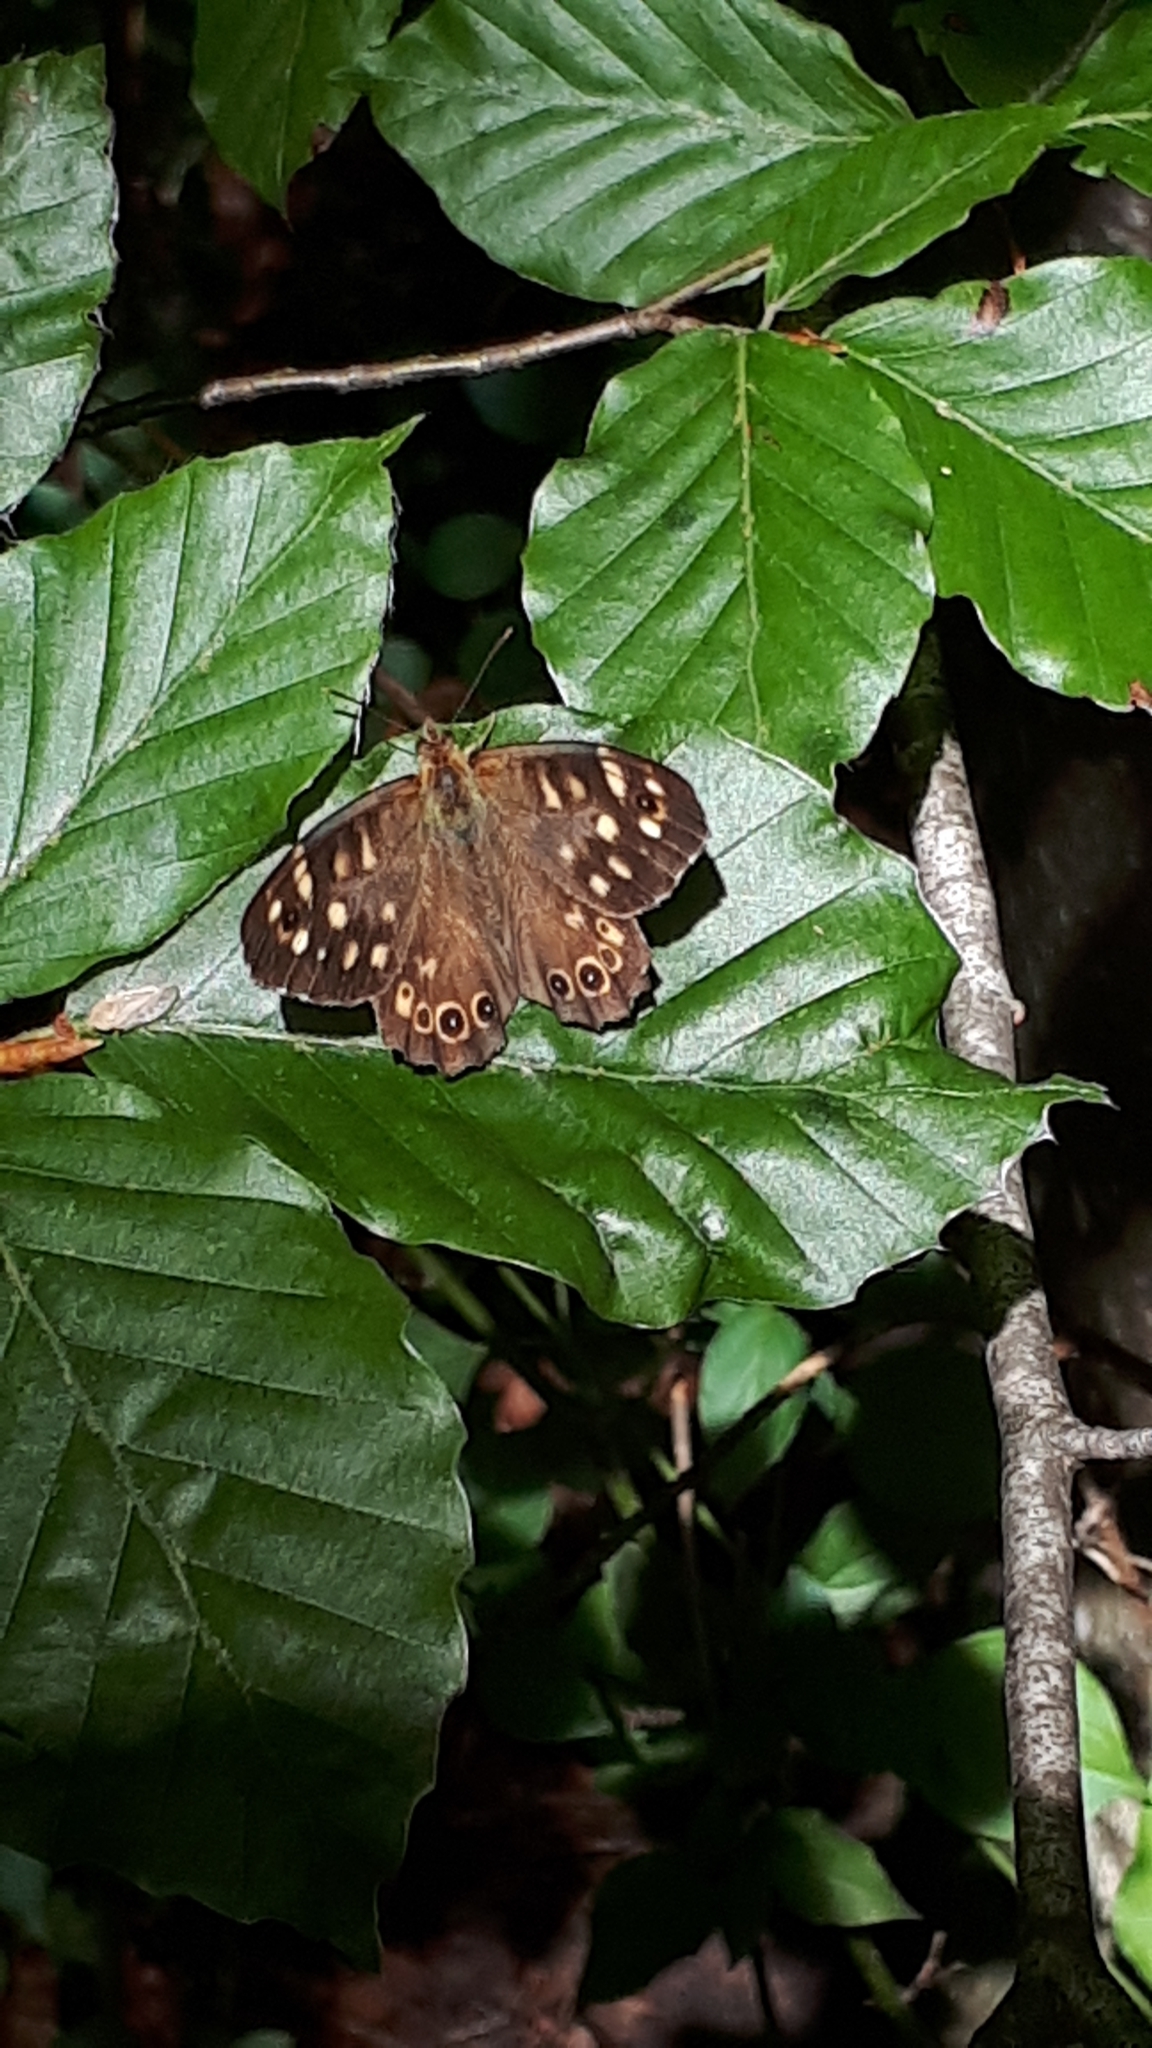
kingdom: Animalia
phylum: Arthropoda
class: Insecta
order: Lepidoptera
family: Nymphalidae
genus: Pararge
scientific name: Pararge aegeria
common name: Speckled wood
